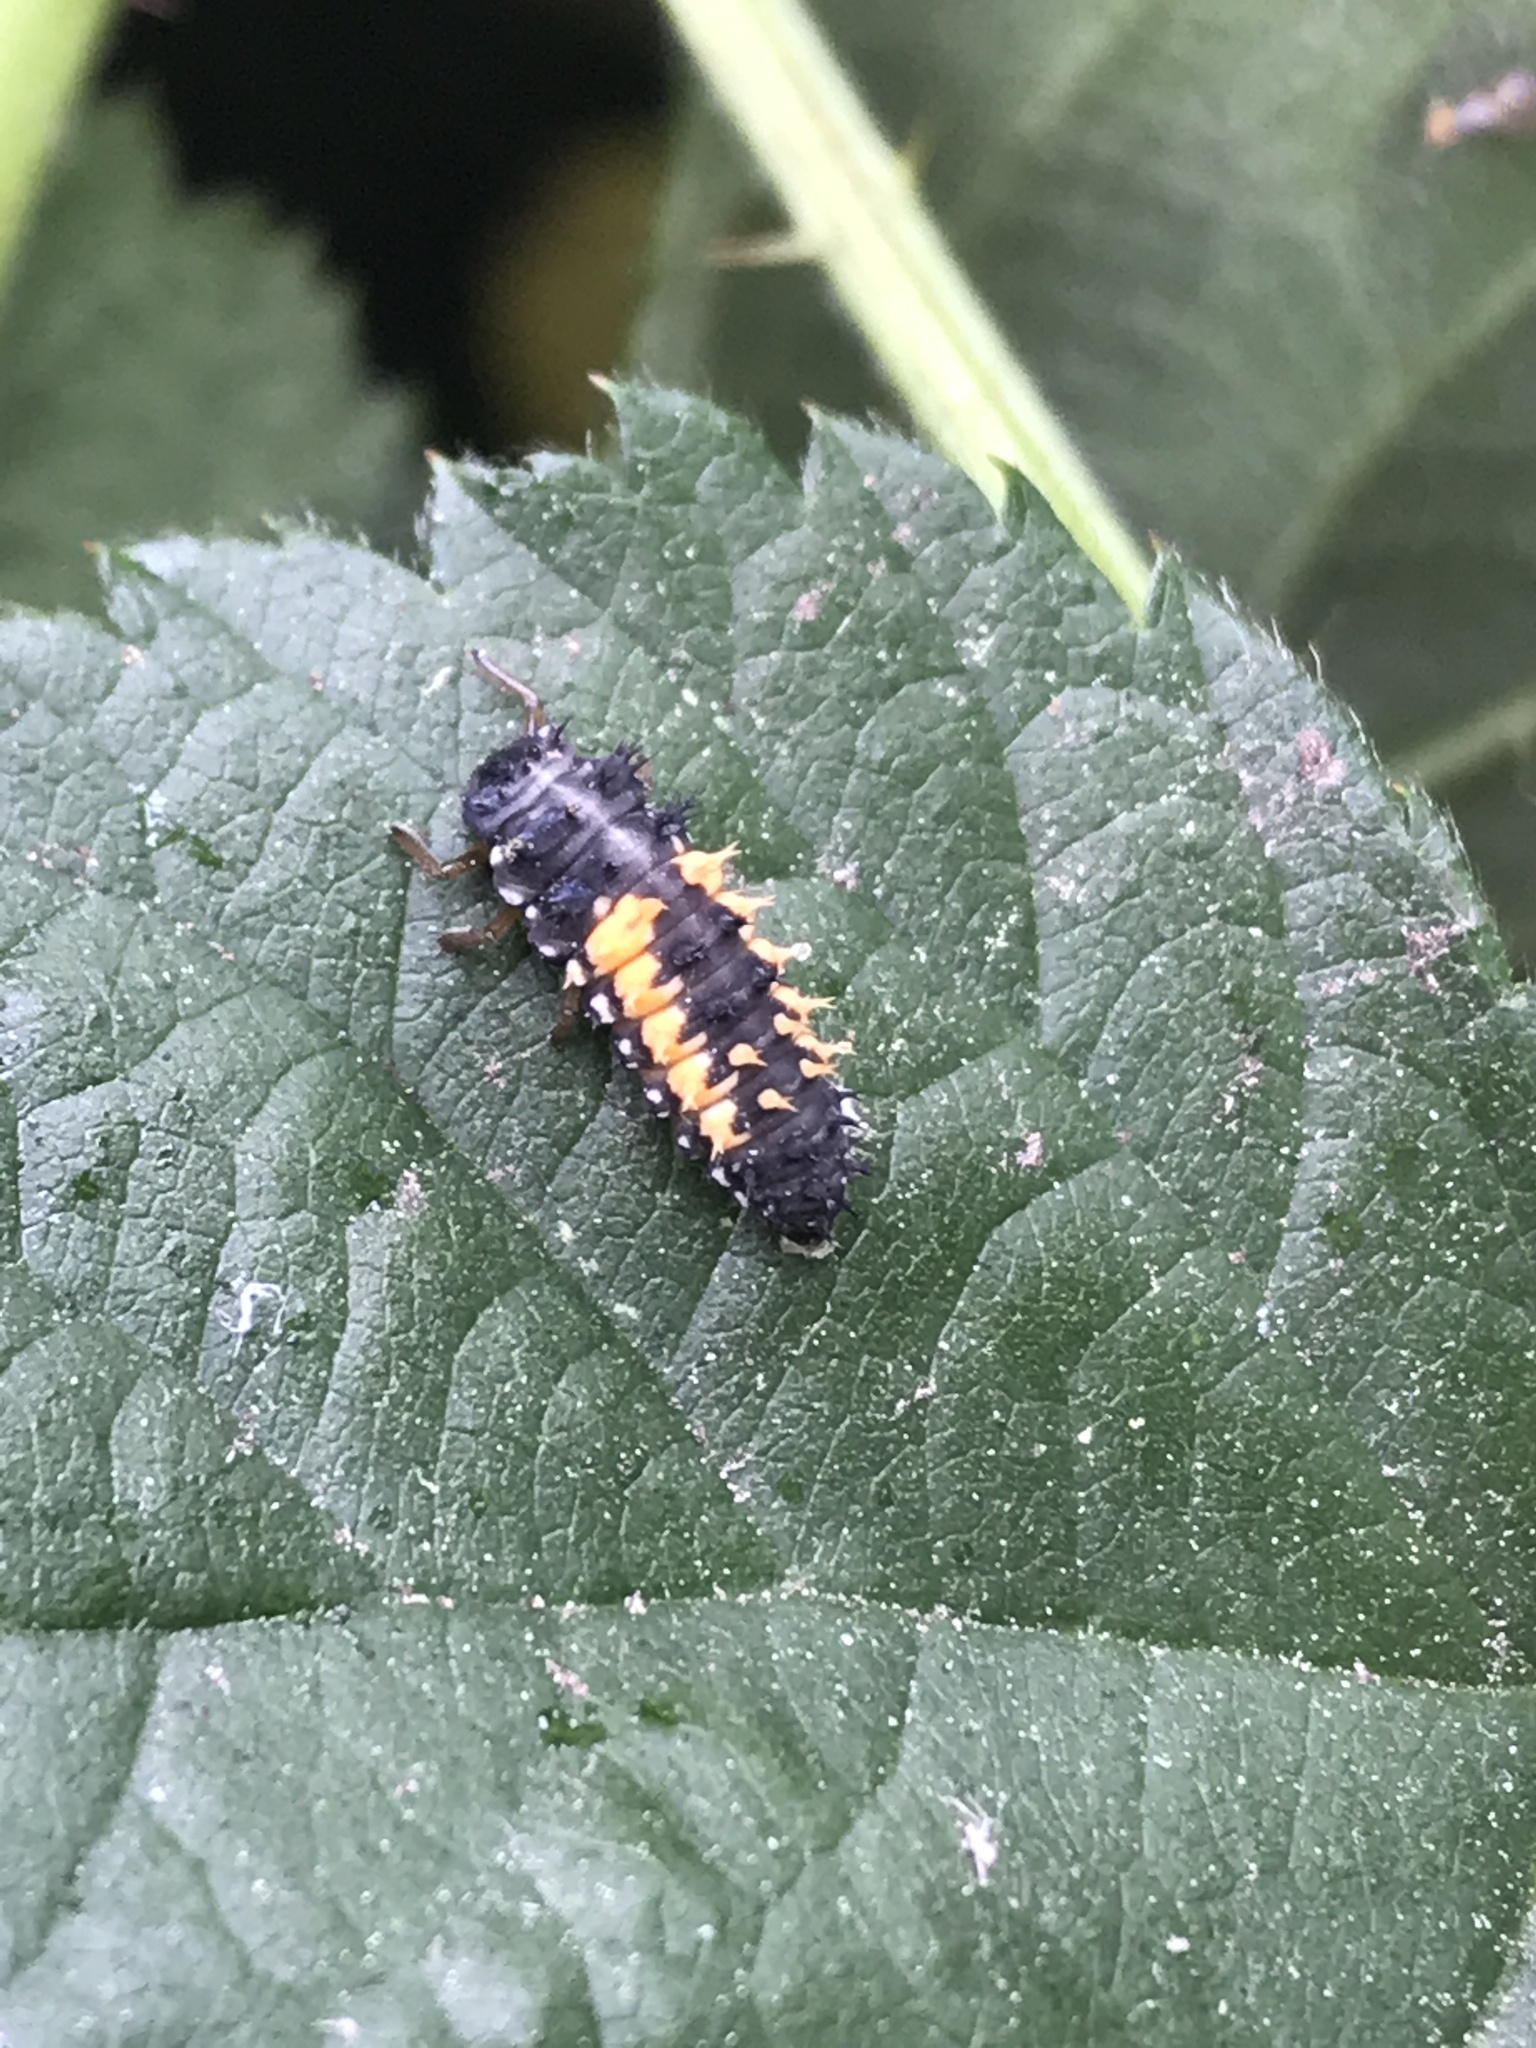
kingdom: Animalia
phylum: Arthropoda
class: Insecta
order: Coleoptera
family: Coccinellidae
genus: Harmonia
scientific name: Harmonia axyridis
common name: Harlequin ladybird
